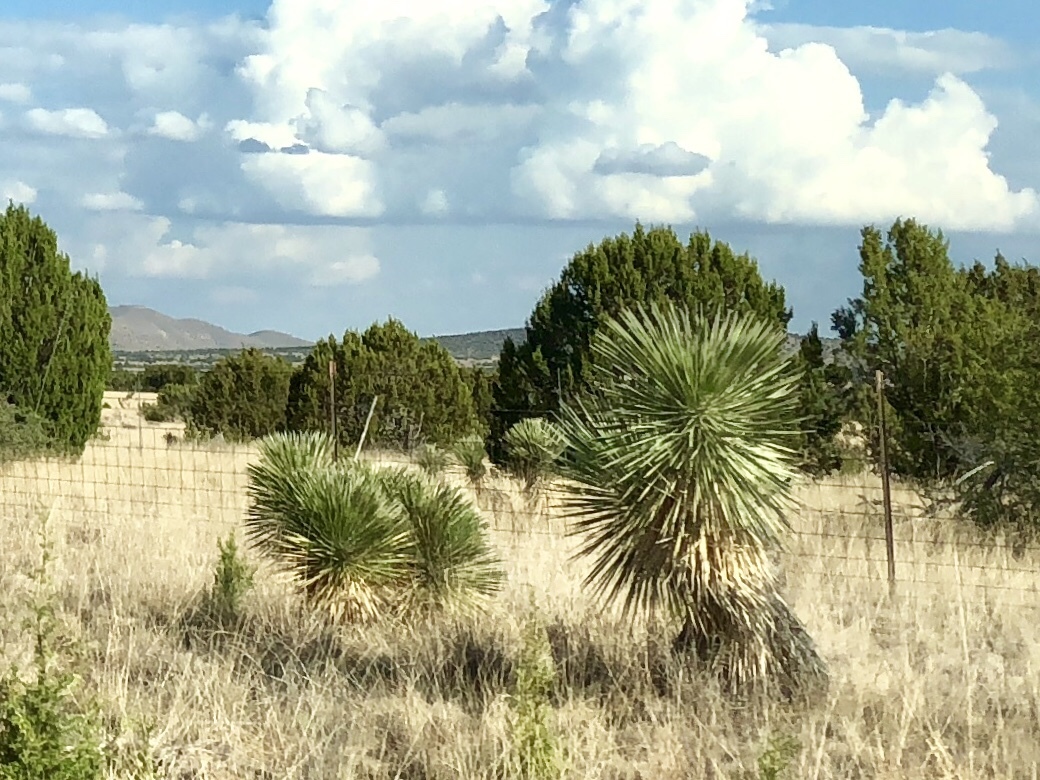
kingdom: Plantae
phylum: Tracheophyta
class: Liliopsida
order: Asparagales
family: Asparagaceae
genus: Yucca
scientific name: Yucca elata
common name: Palmella
